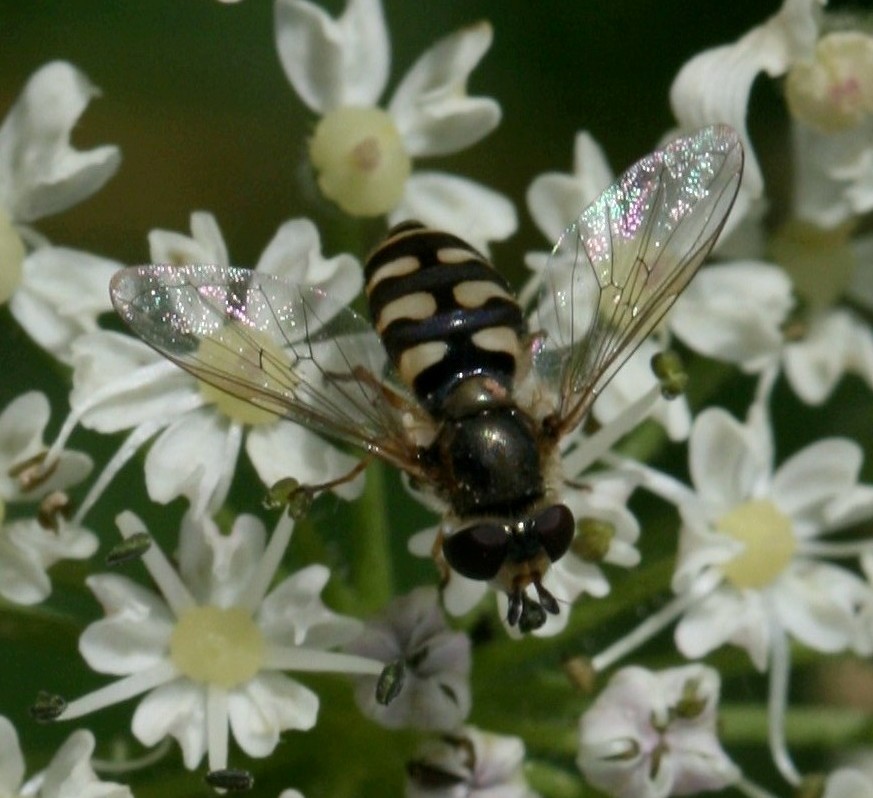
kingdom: Animalia
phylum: Arthropoda
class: Insecta
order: Diptera
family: Syrphidae
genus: Eupeodes
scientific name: Eupeodes corollae
